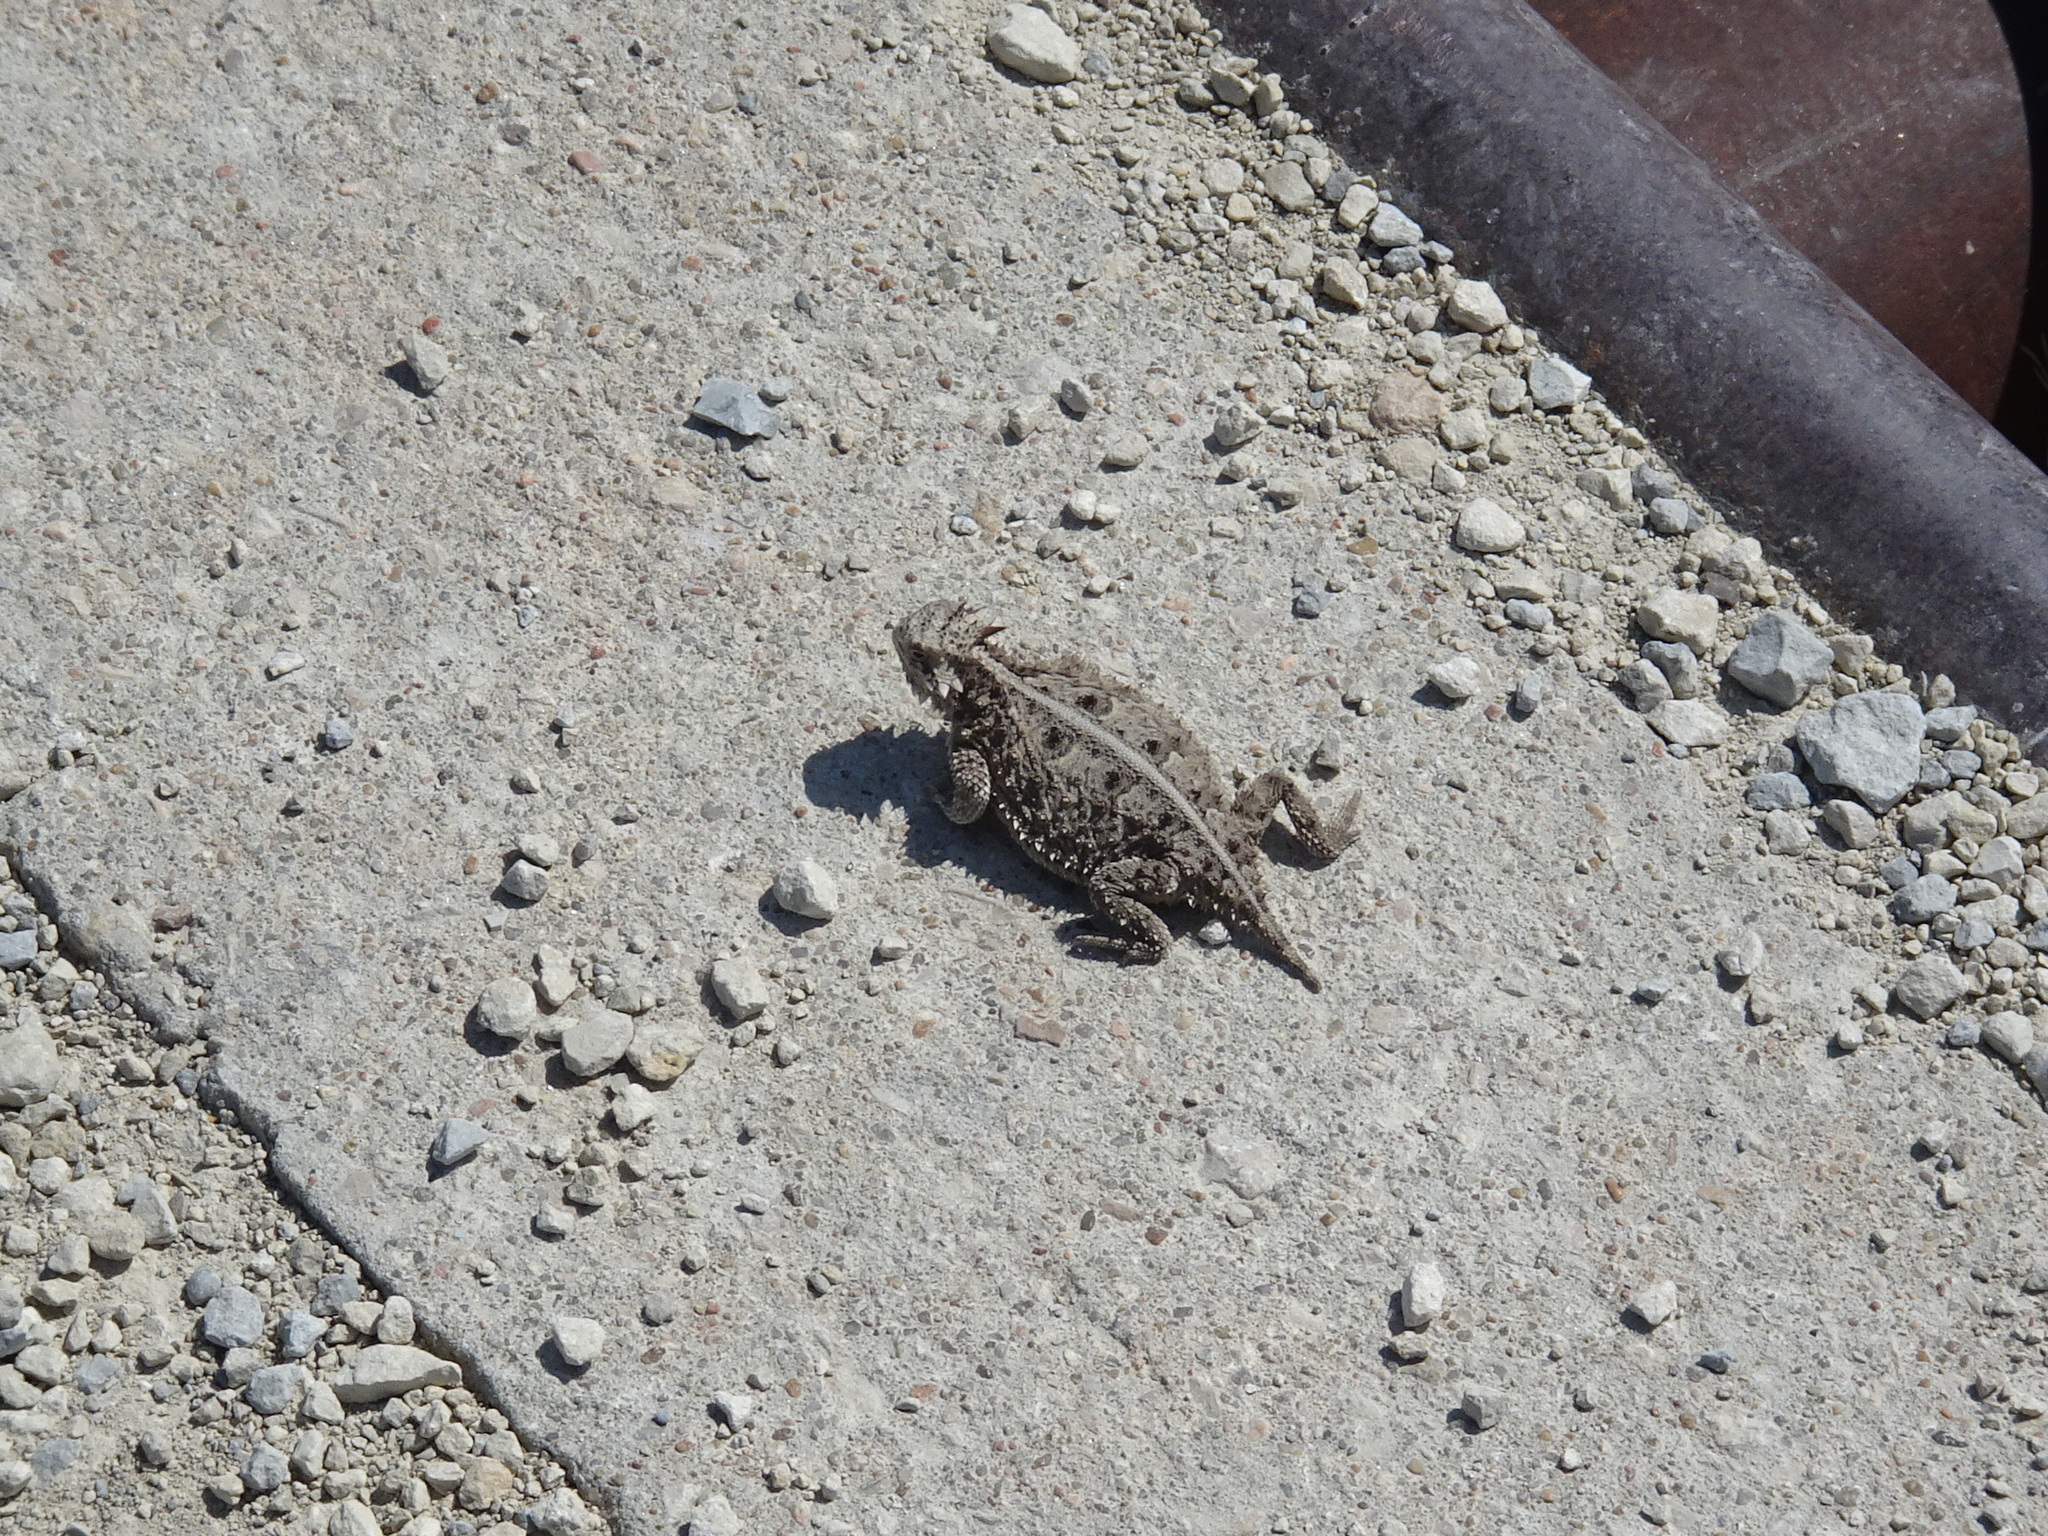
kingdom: Animalia
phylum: Chordata
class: Squamata
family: Phrynosomatidae
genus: Phrynosoma
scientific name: Phrynosoma cornutum
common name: Texas horned lizard
